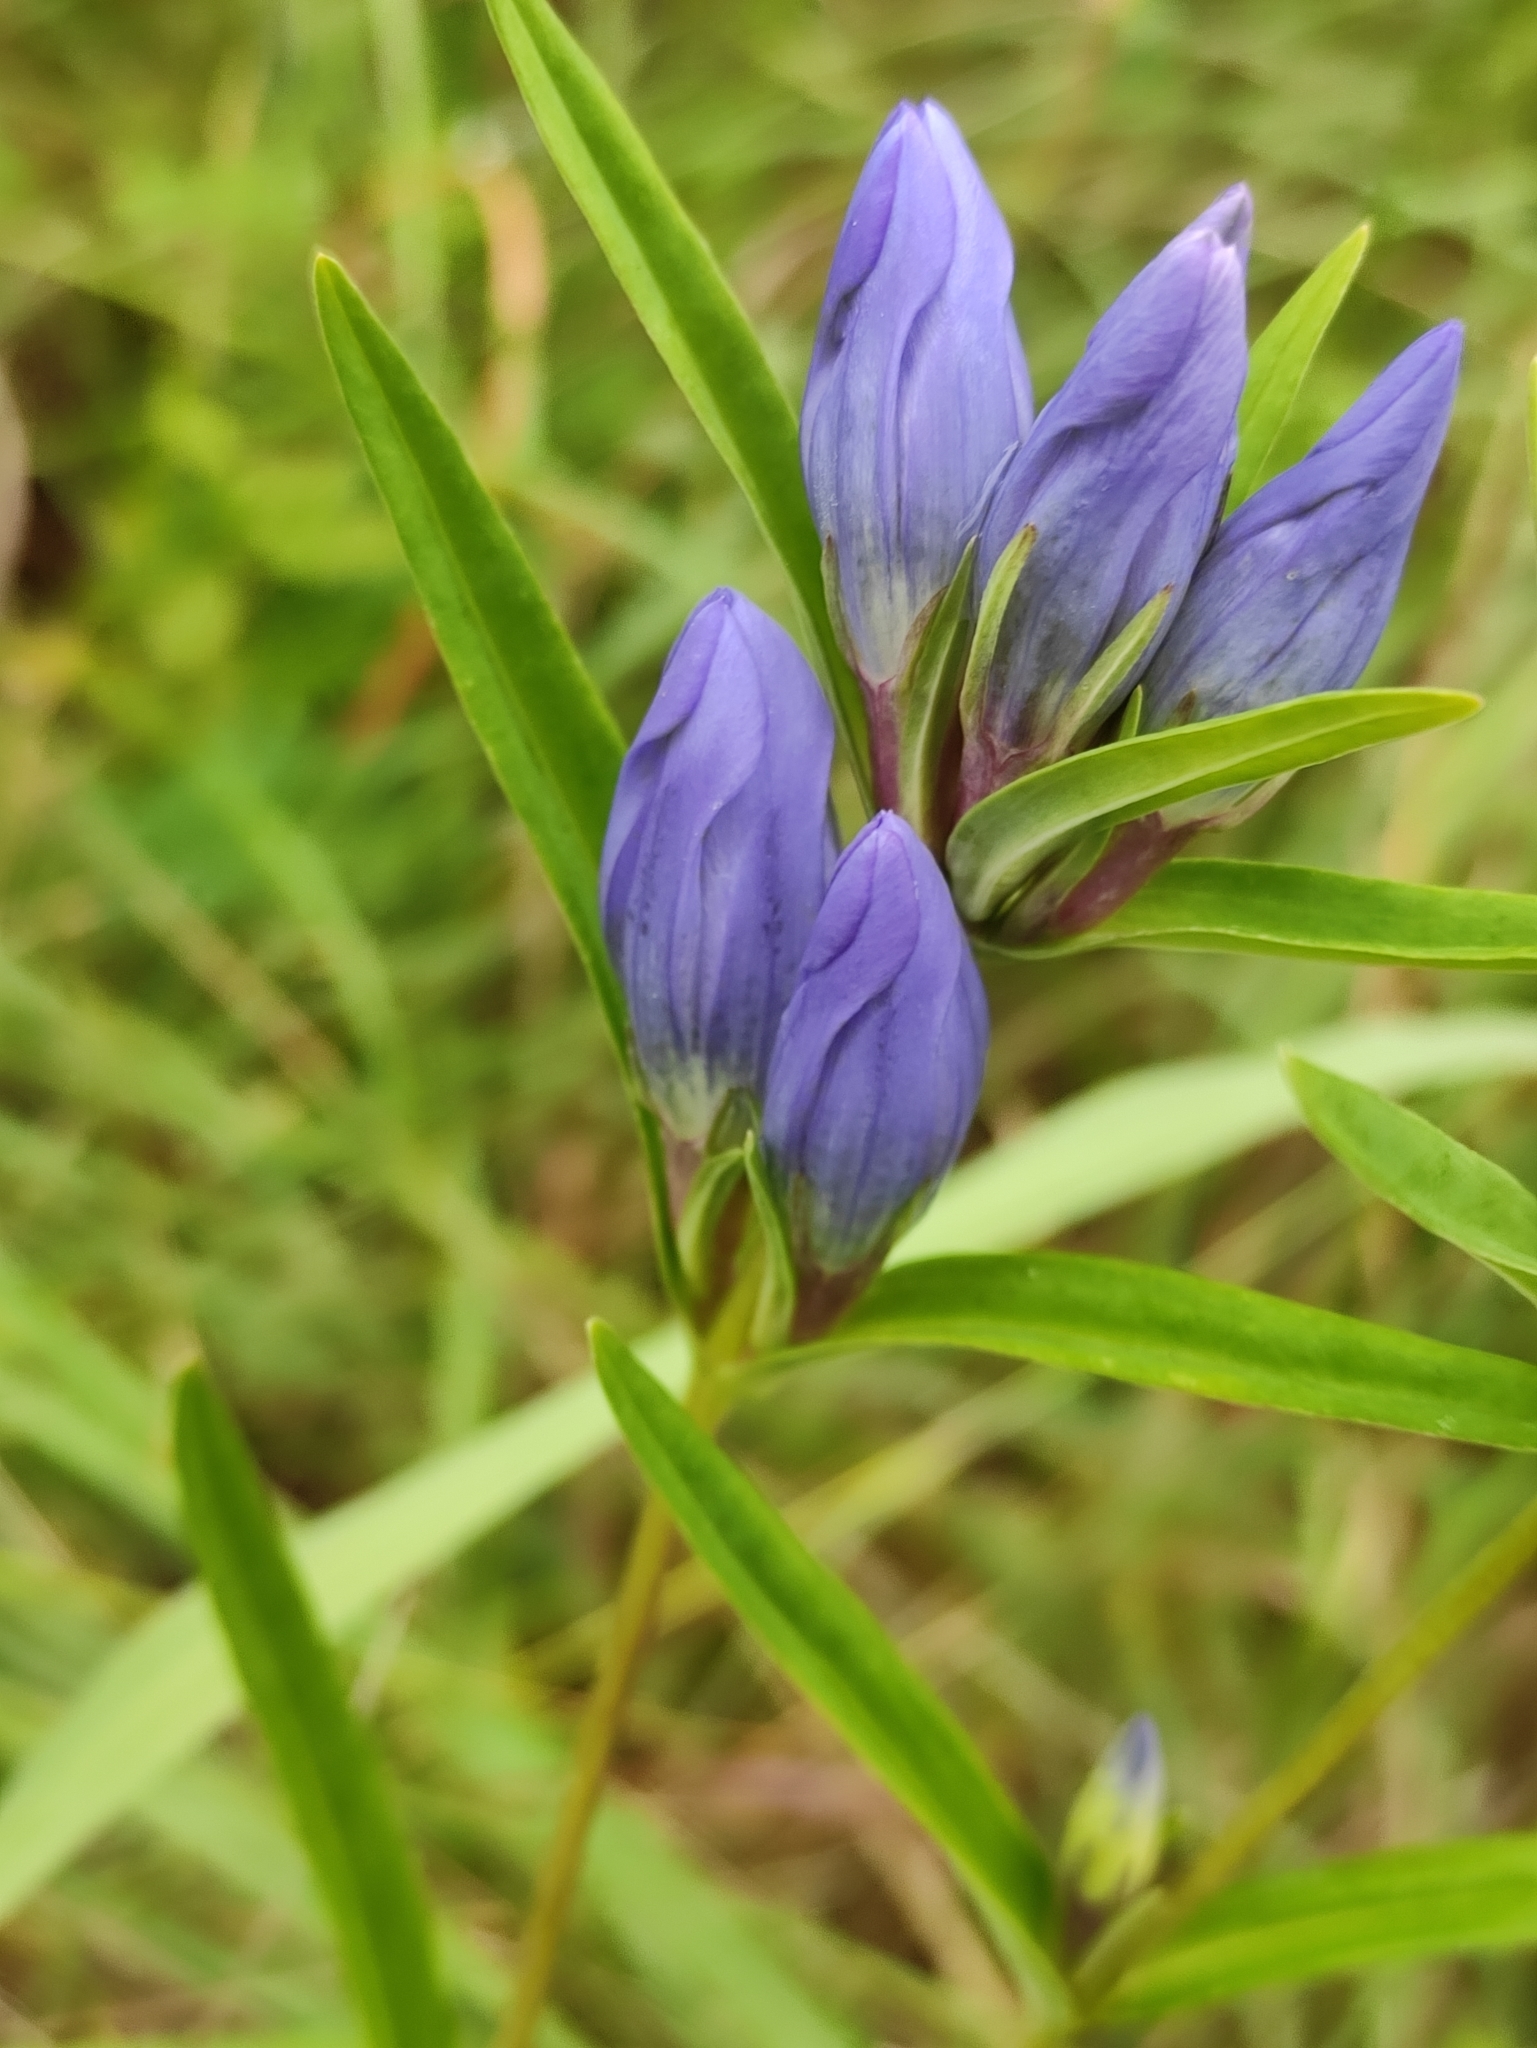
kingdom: Plantae
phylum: Tracheophyta
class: Magnoliopsida
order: Gentianales
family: Gentianaceae
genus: Gentiana
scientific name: Gentiana triflora
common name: Three-flower gentian
